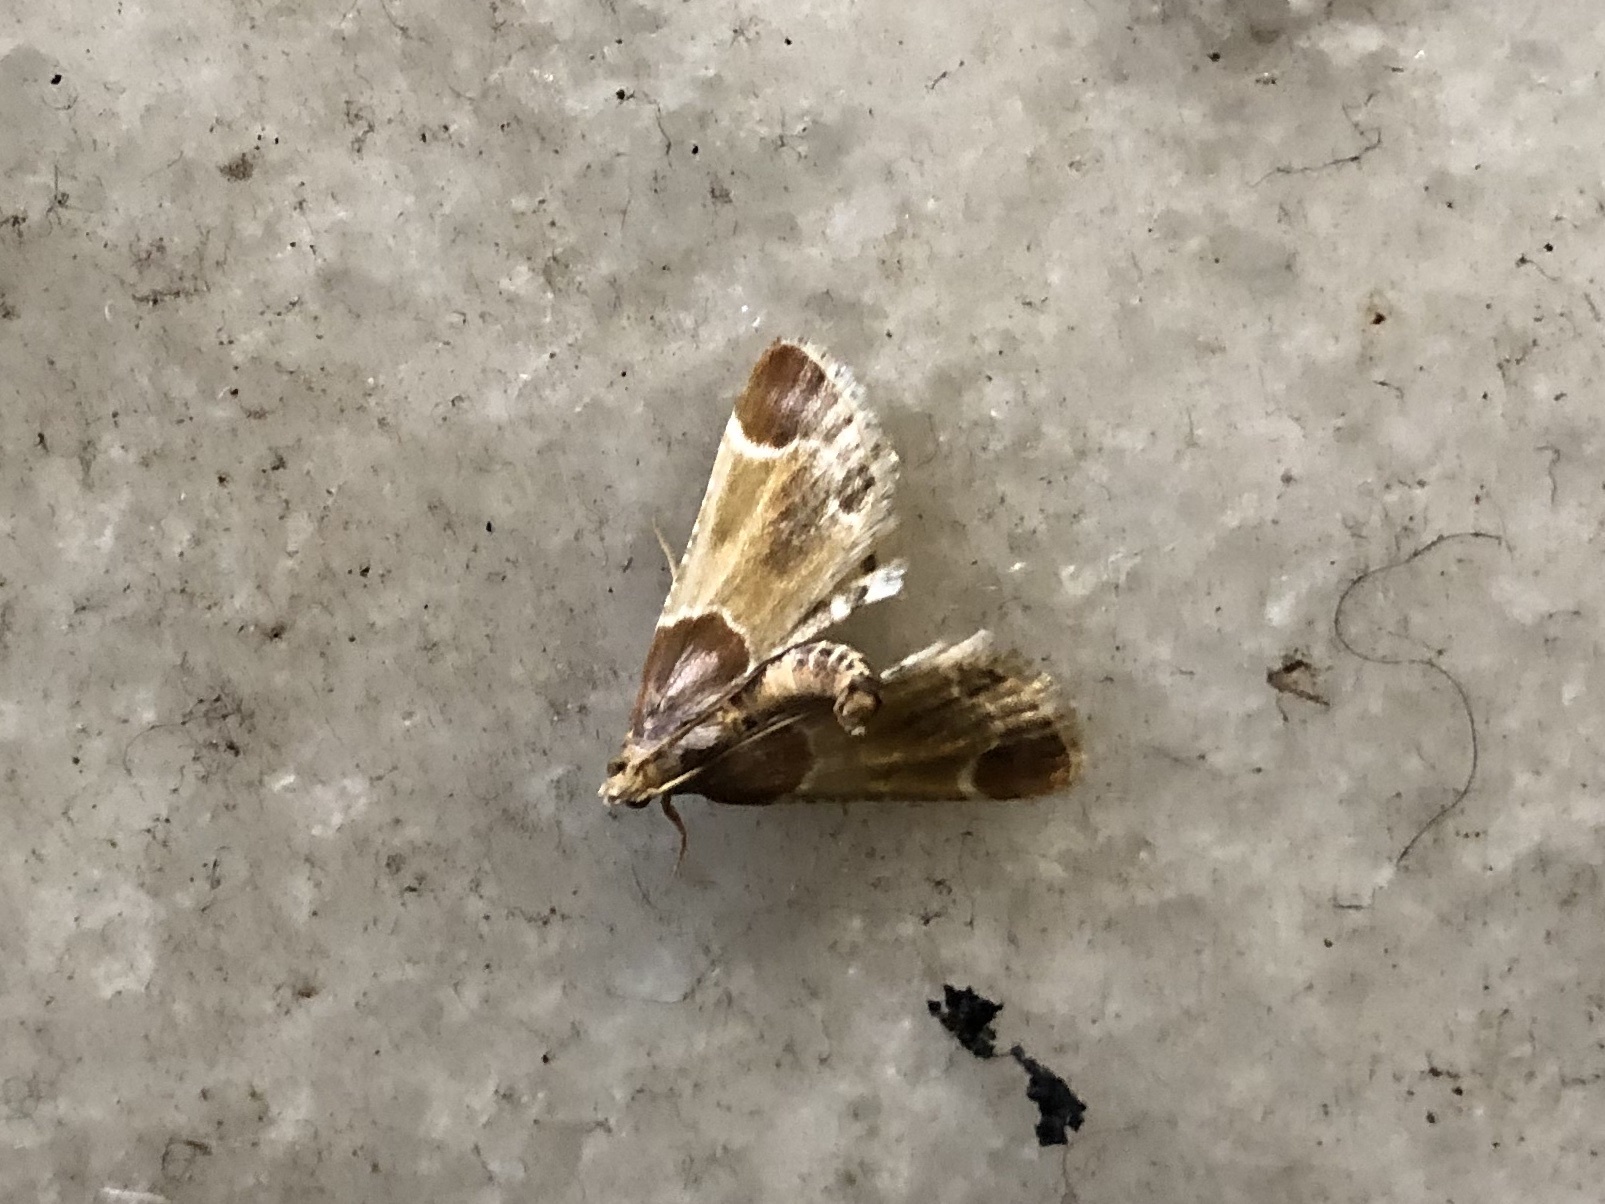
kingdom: Animalia
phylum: Arthropoda
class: Insecta
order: Lepidoptera
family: Pyralidae
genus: Pyralis
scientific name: Pyralis farinalis
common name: Meal moth
